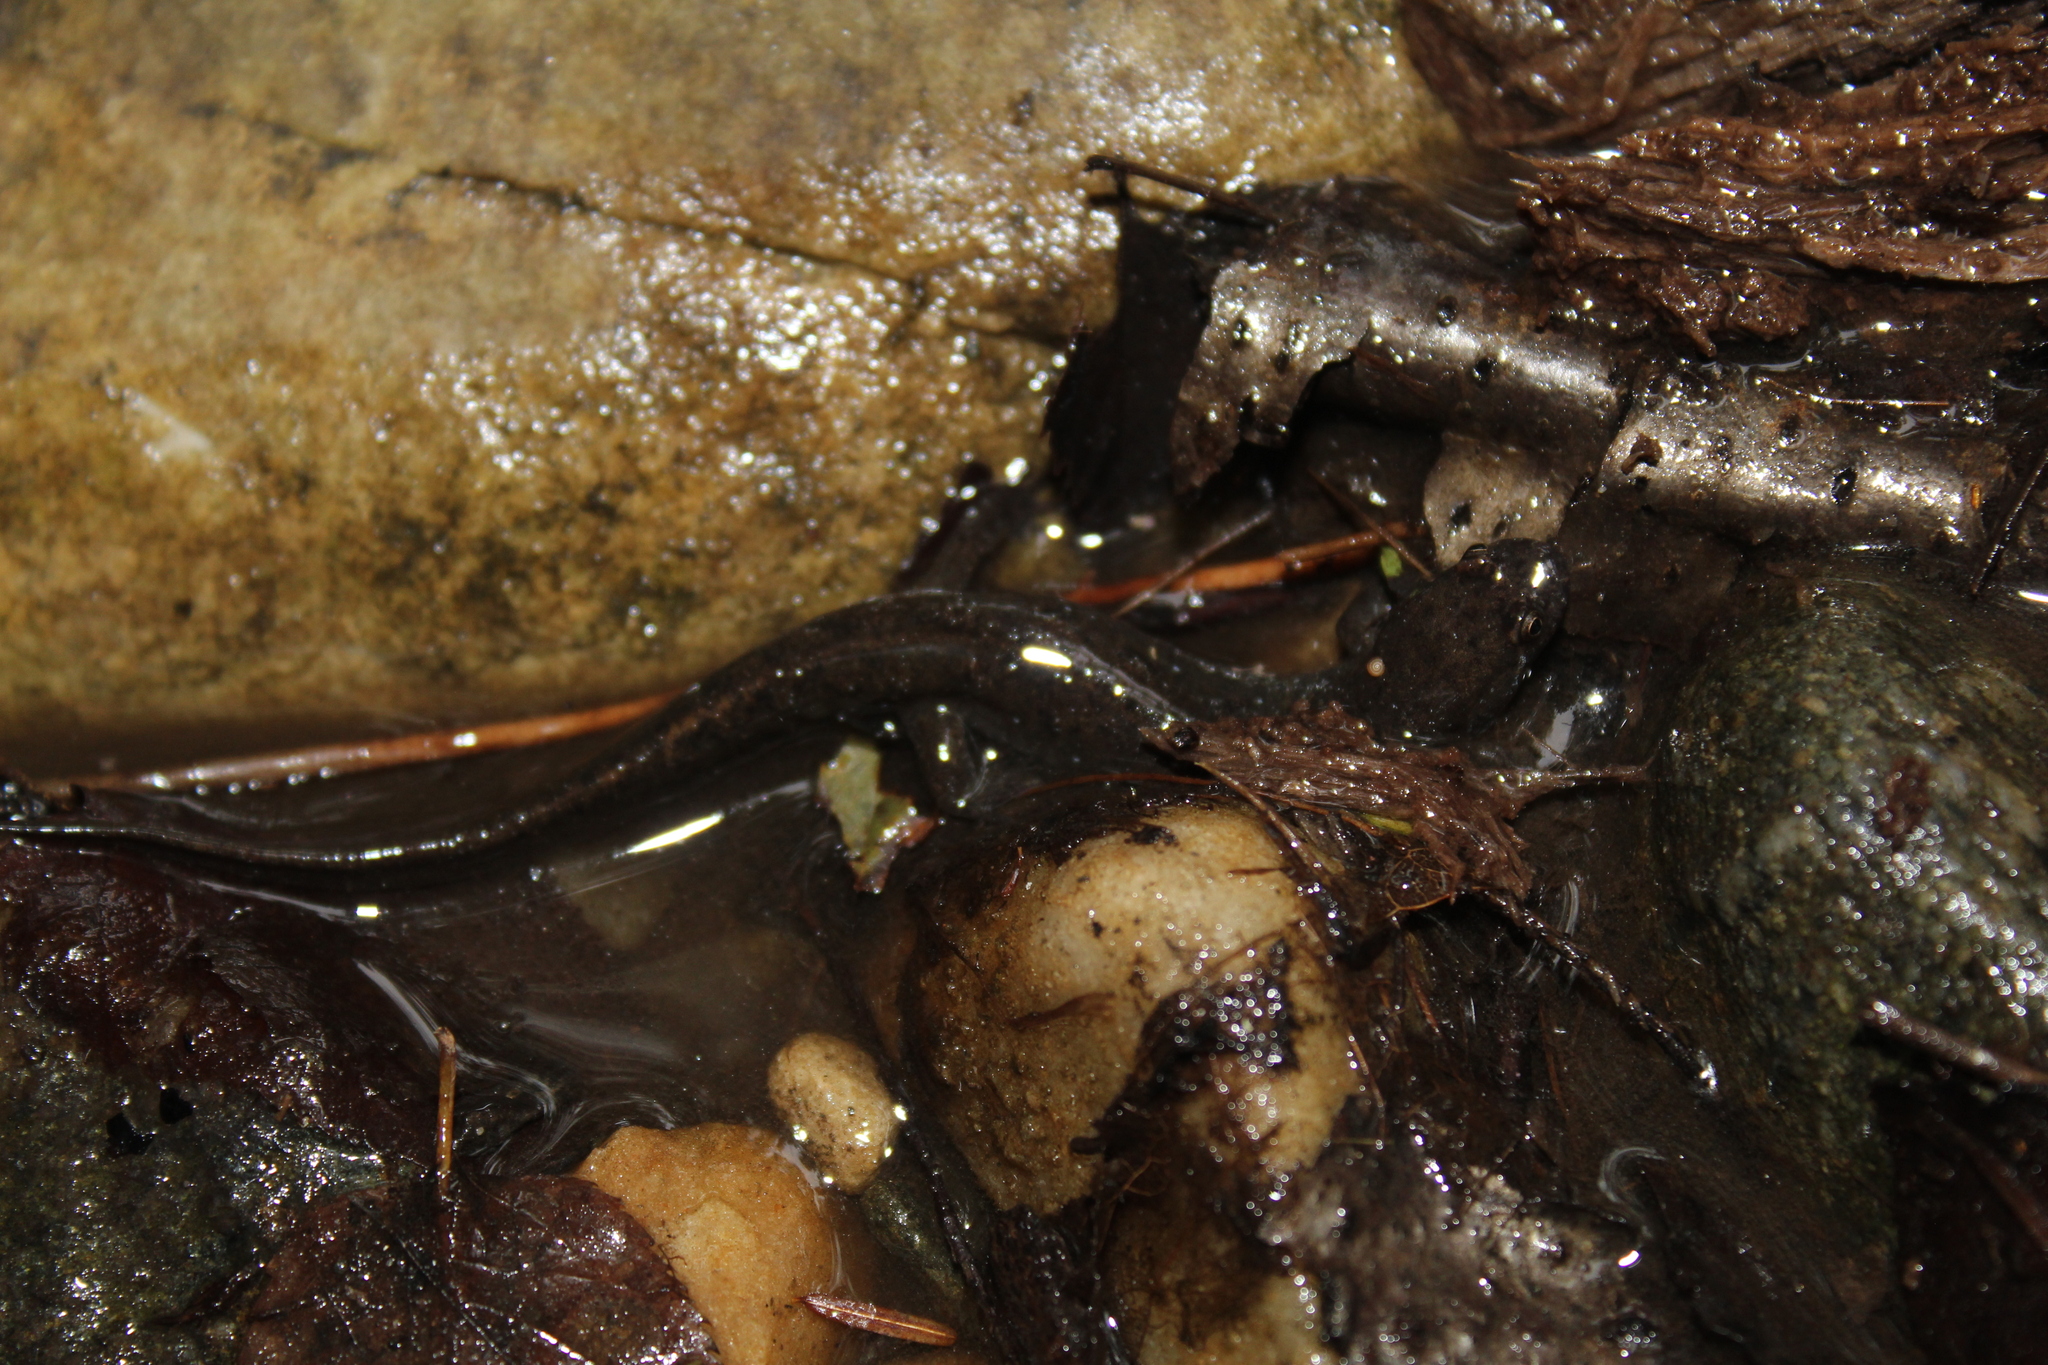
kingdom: Animalia
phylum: Chordata
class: Amphibia
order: Caudata
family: Plethodontidae
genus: Desmognathus
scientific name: Desmognathus fuscus
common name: Northern dusky salamander
